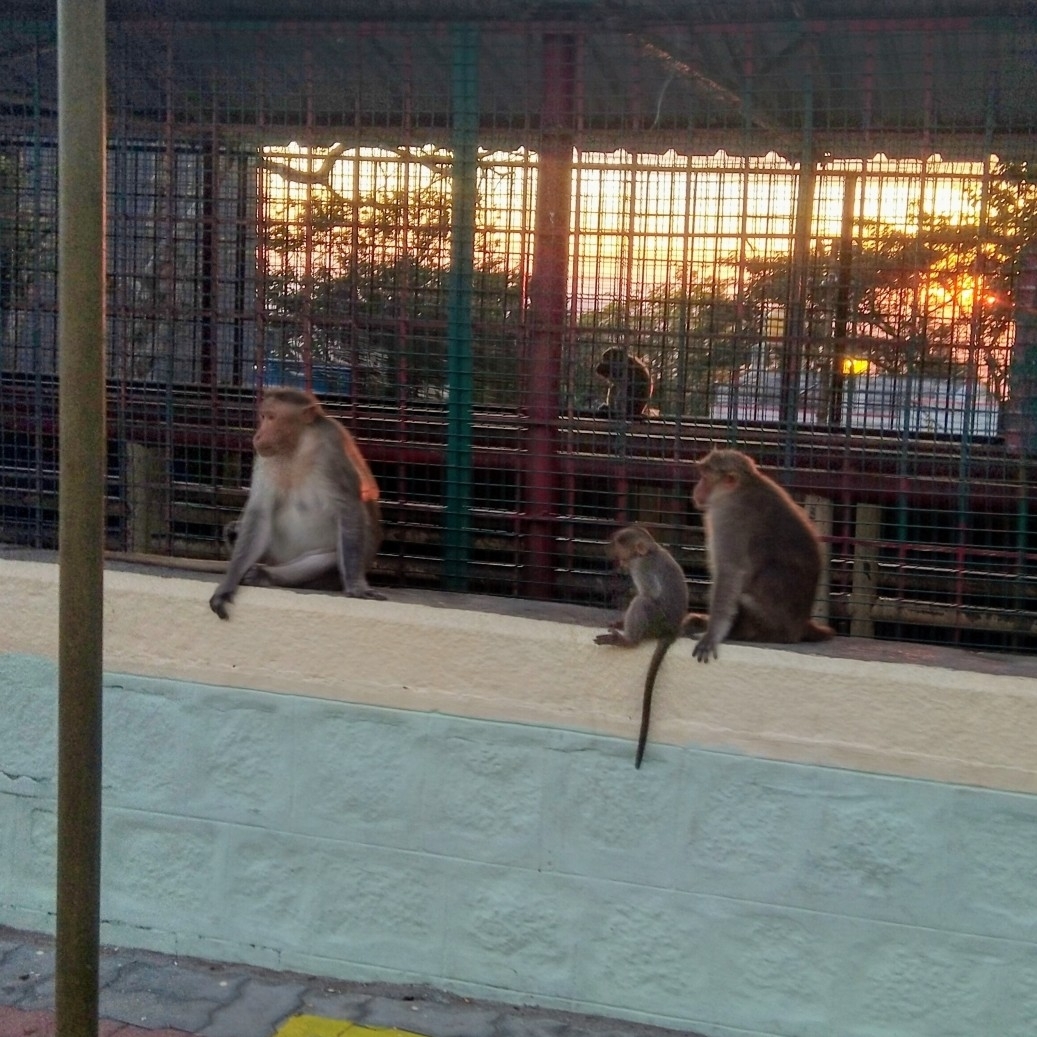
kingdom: Animalia
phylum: Chordata
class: Mammalia
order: Primates
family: Cercopithecidae
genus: Macaca
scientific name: Macaca radiata
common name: Bonnet macaque
